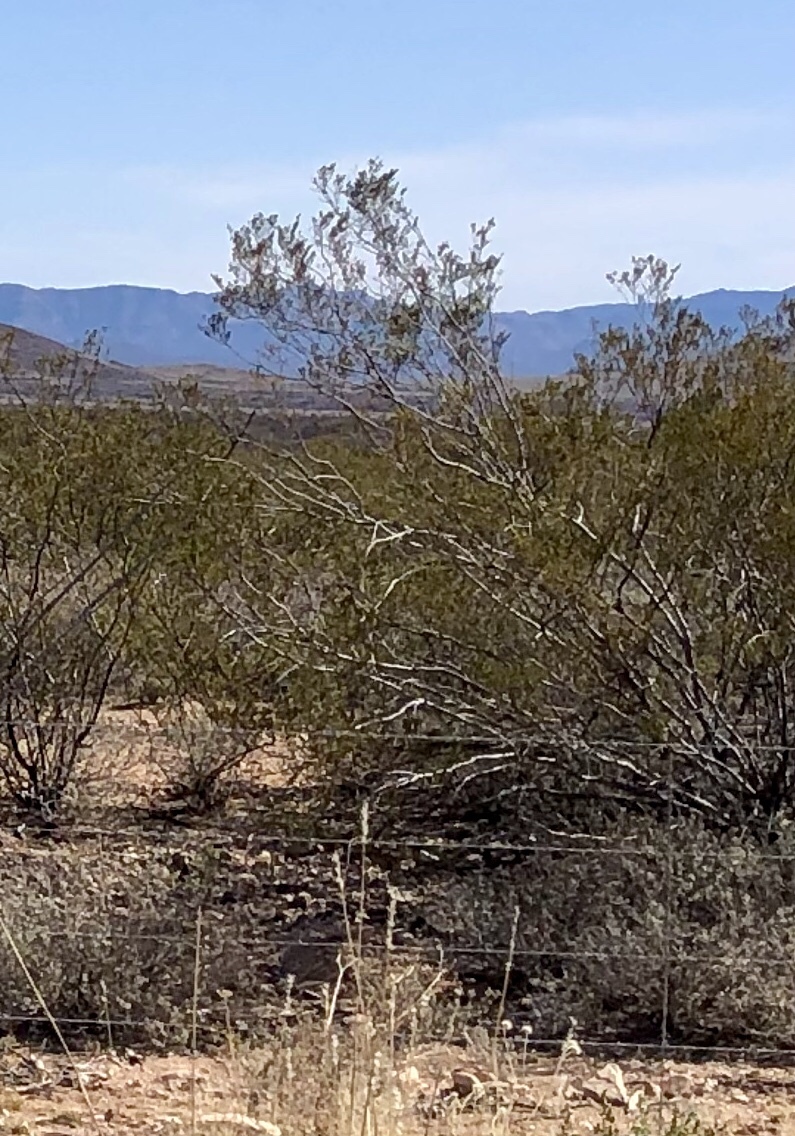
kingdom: Plantae
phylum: Tracheophyta
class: Magnoliopsida
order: Zygophyllales
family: Zygophyllaceae
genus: Larrea
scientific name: Larrea tridentata
